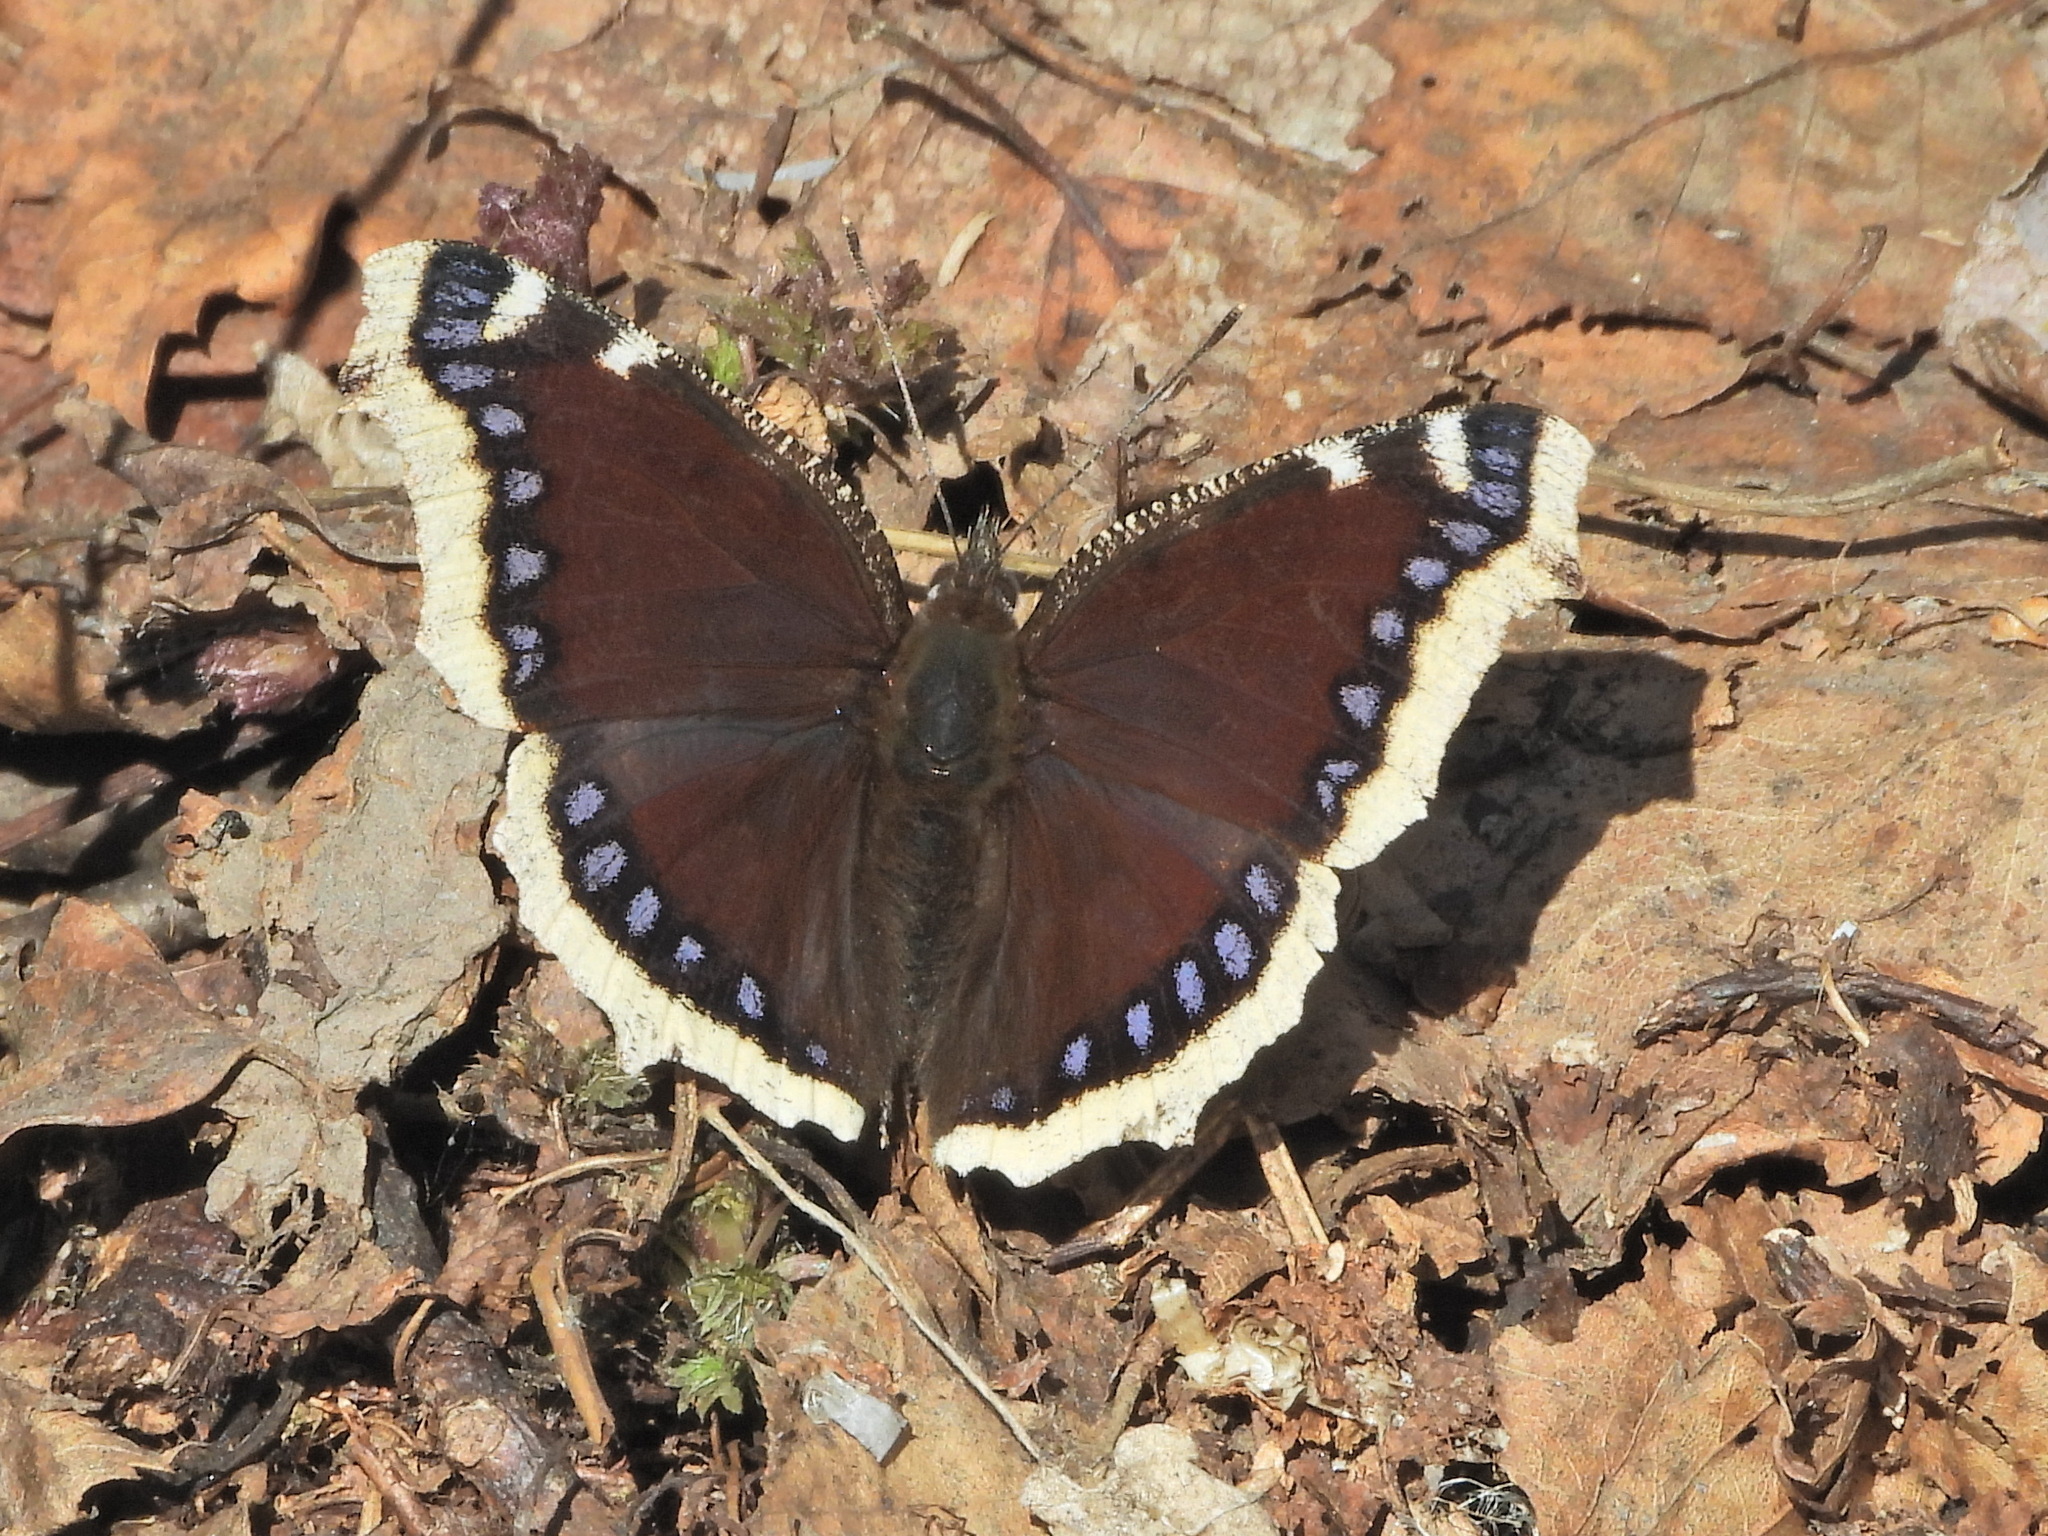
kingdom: Animalia
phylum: Arthropoda
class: Insecta
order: Lepidoptera
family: Nymphalidae
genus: Nymphalis
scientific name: Nymphalis antiopa
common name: Camberwell beauty
